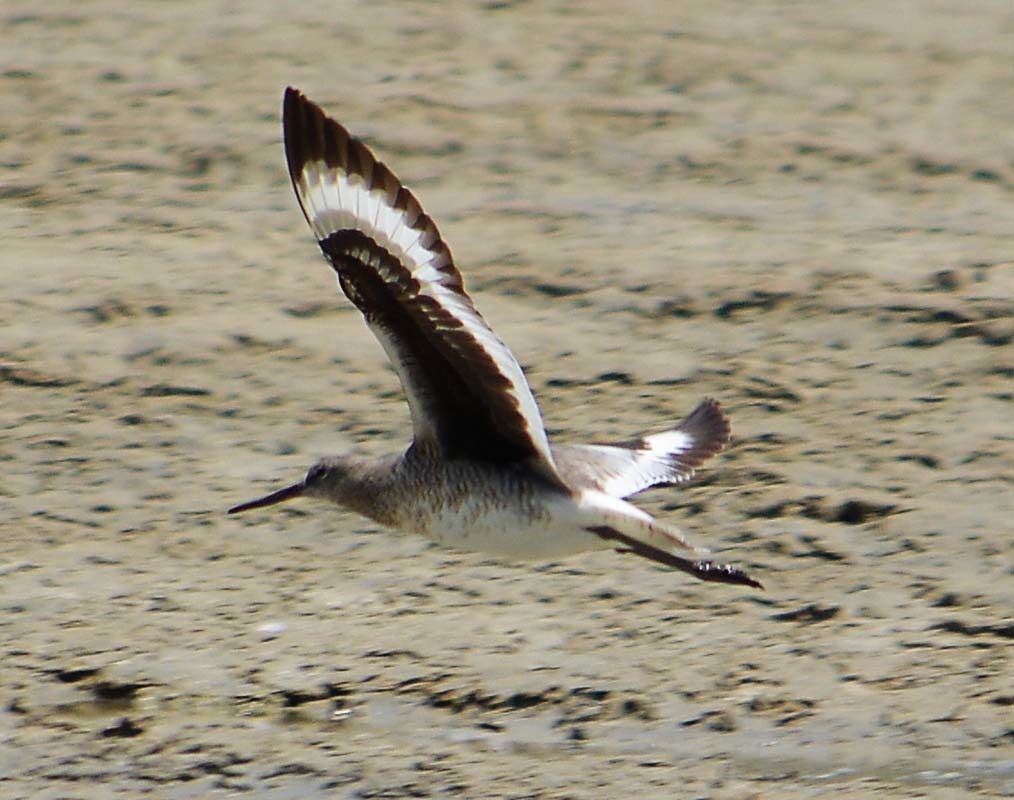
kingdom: Animalia
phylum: Chordata
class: Aves
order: Charadriiformes
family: Scolopacidae
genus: Tringa
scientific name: Tringa semipalmata
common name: Willet
